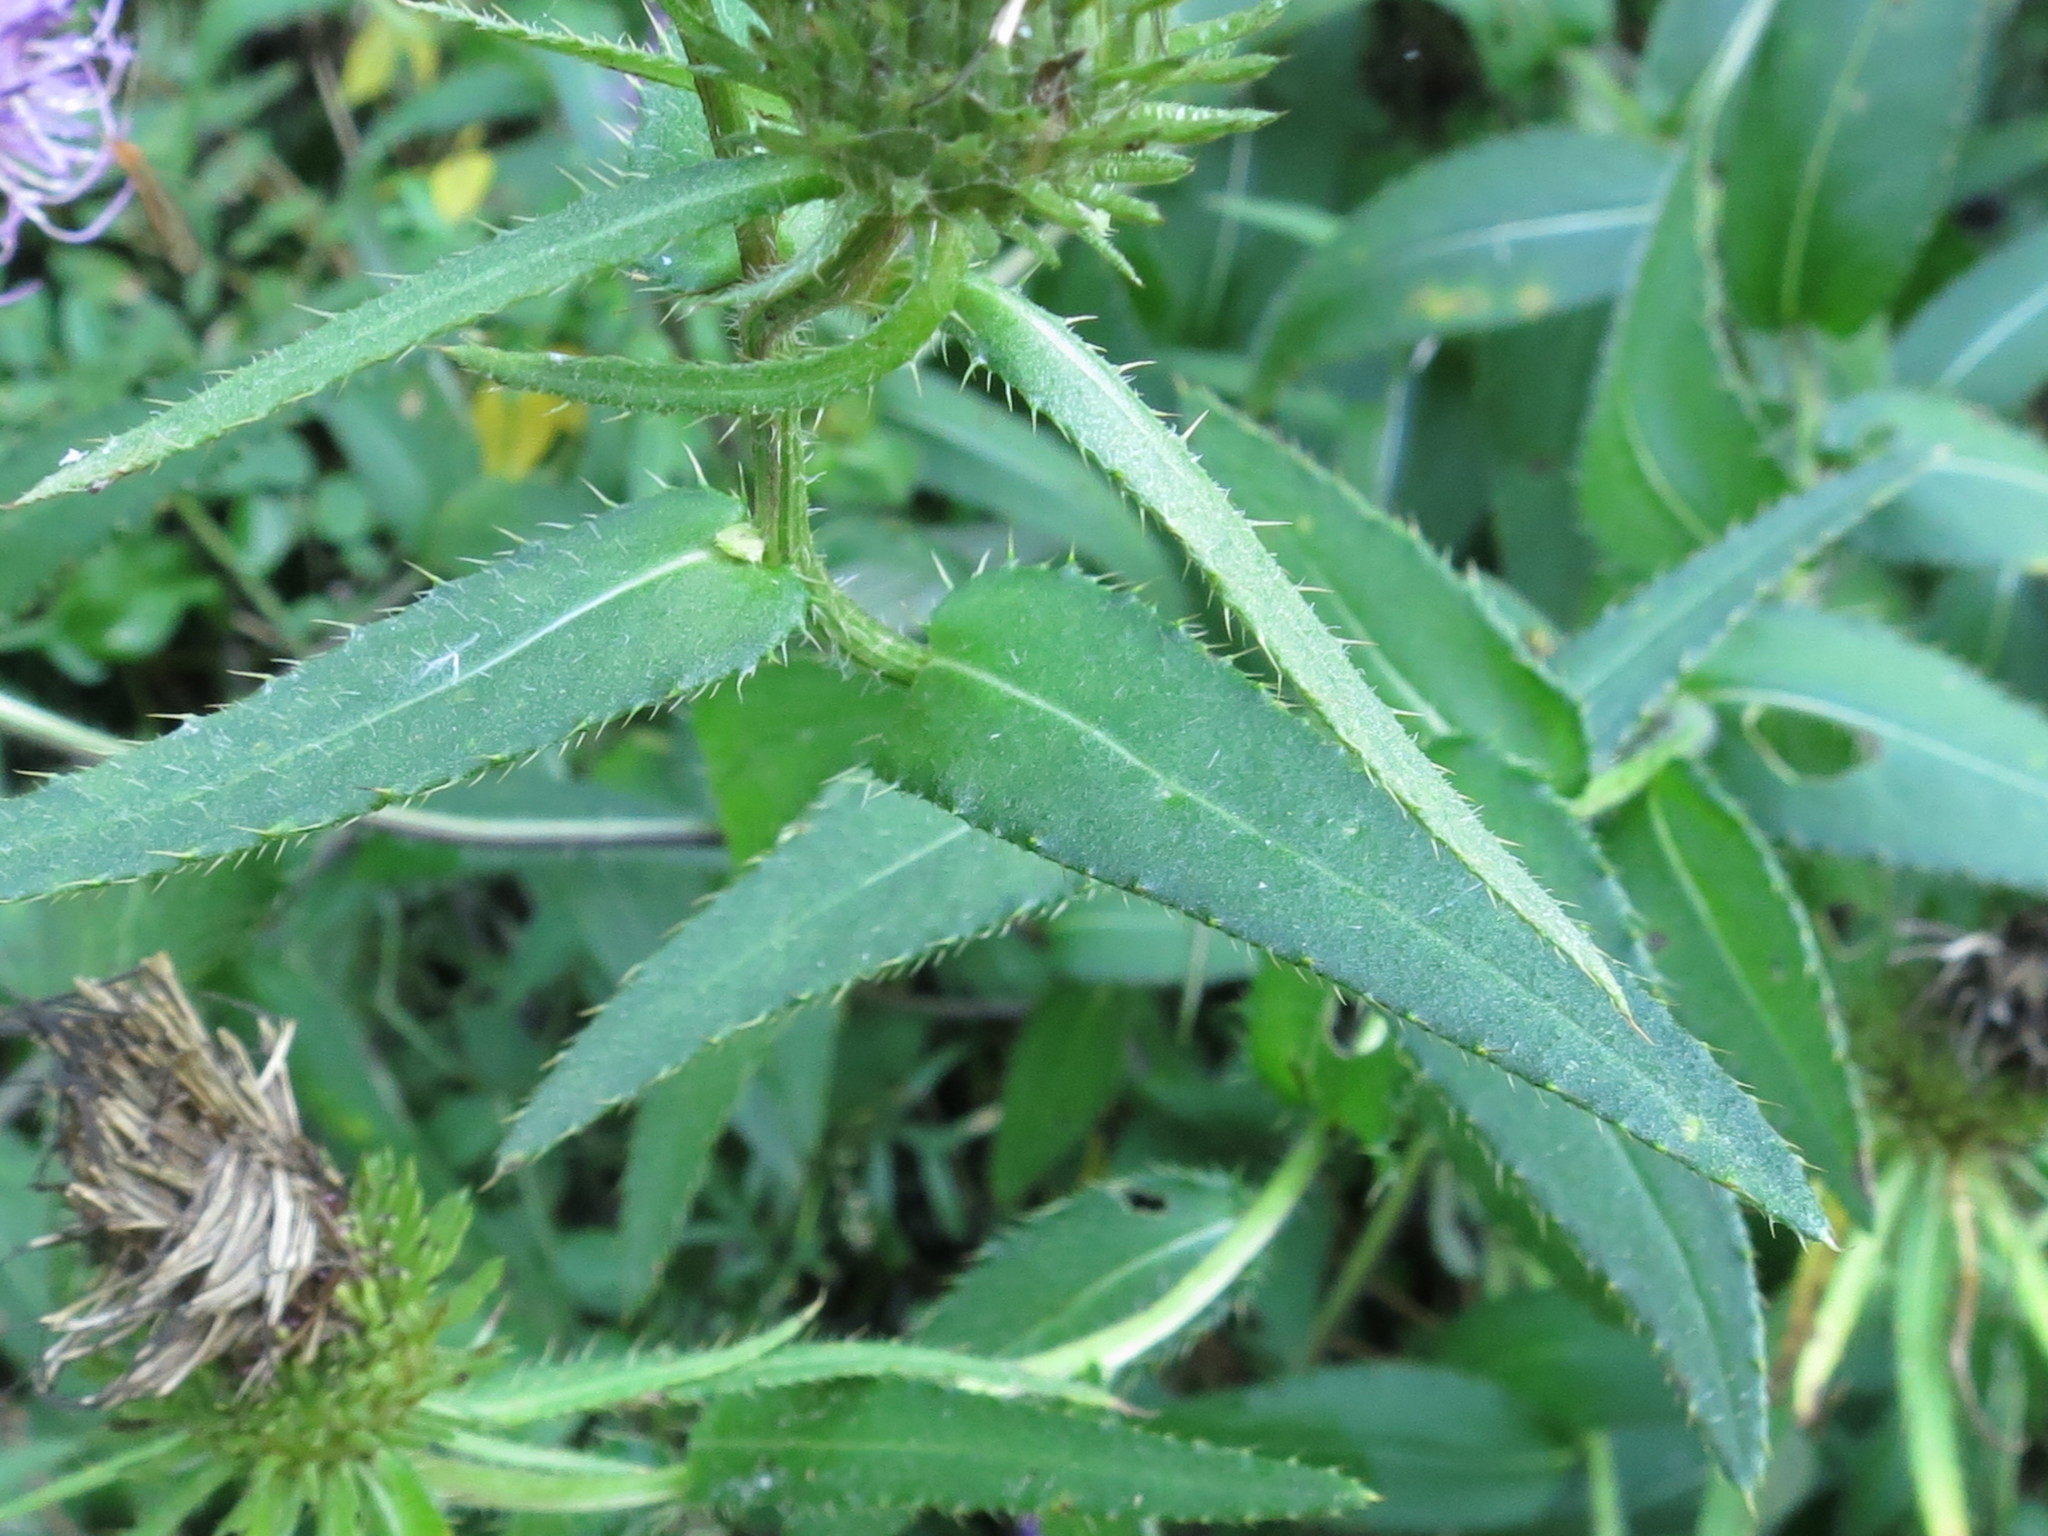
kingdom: Plantae
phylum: Tracheophyta
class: Magnoliopsida
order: Asterales
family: Asteraceae
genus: Cirsium
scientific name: Cirsium vlassovianum
